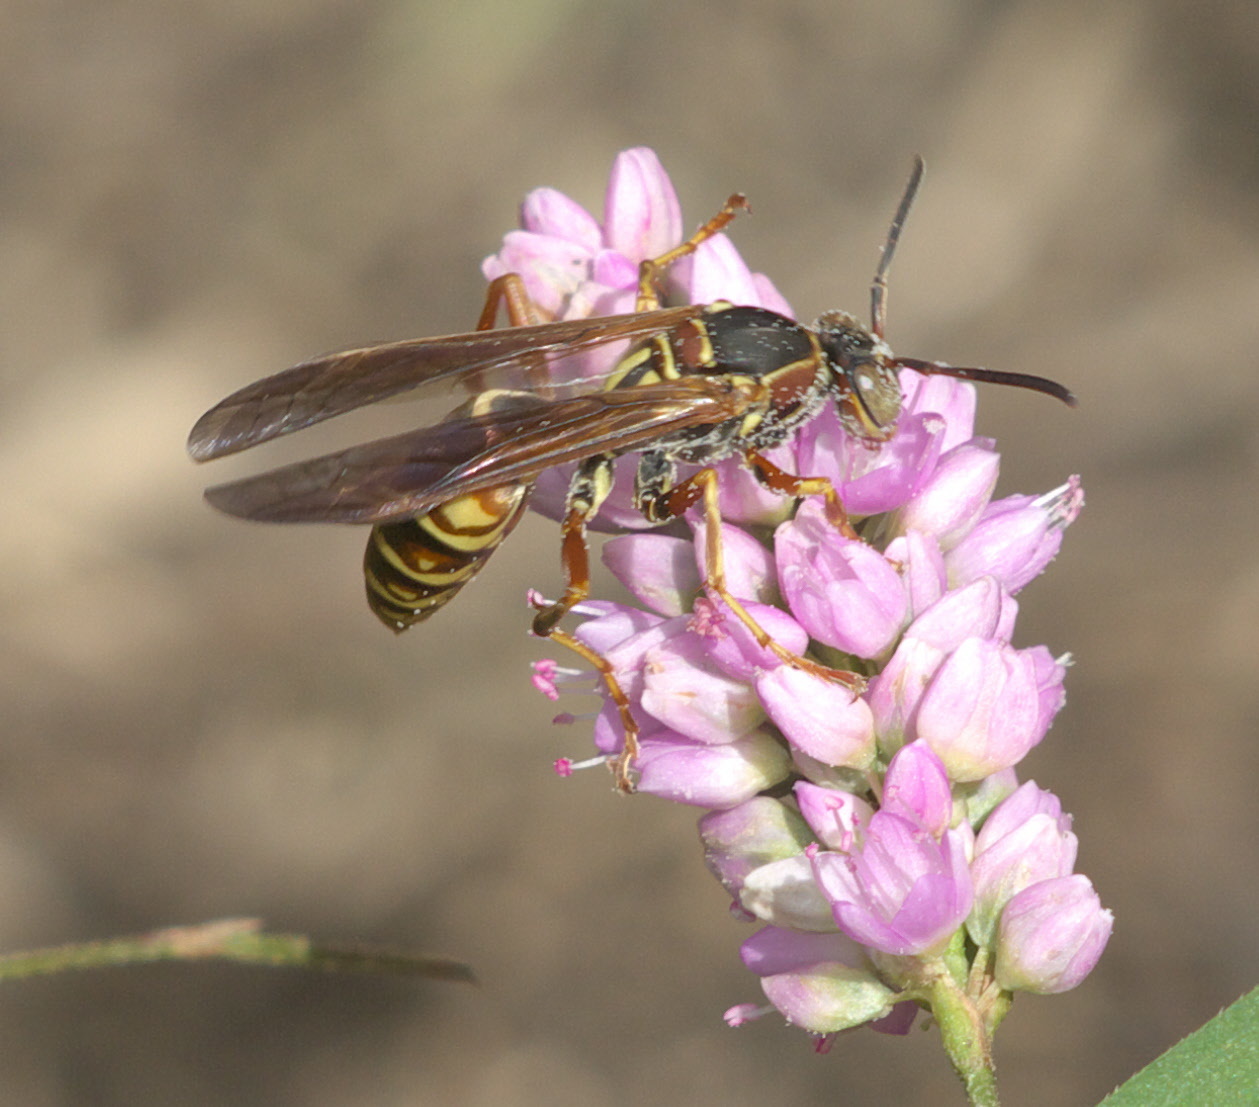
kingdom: Animalia
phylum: Arthropoda
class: Insecta
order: Hymenoptera
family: Eumenidae
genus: Polistes
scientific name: Polistes fuscatus
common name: Dark paper wasp
